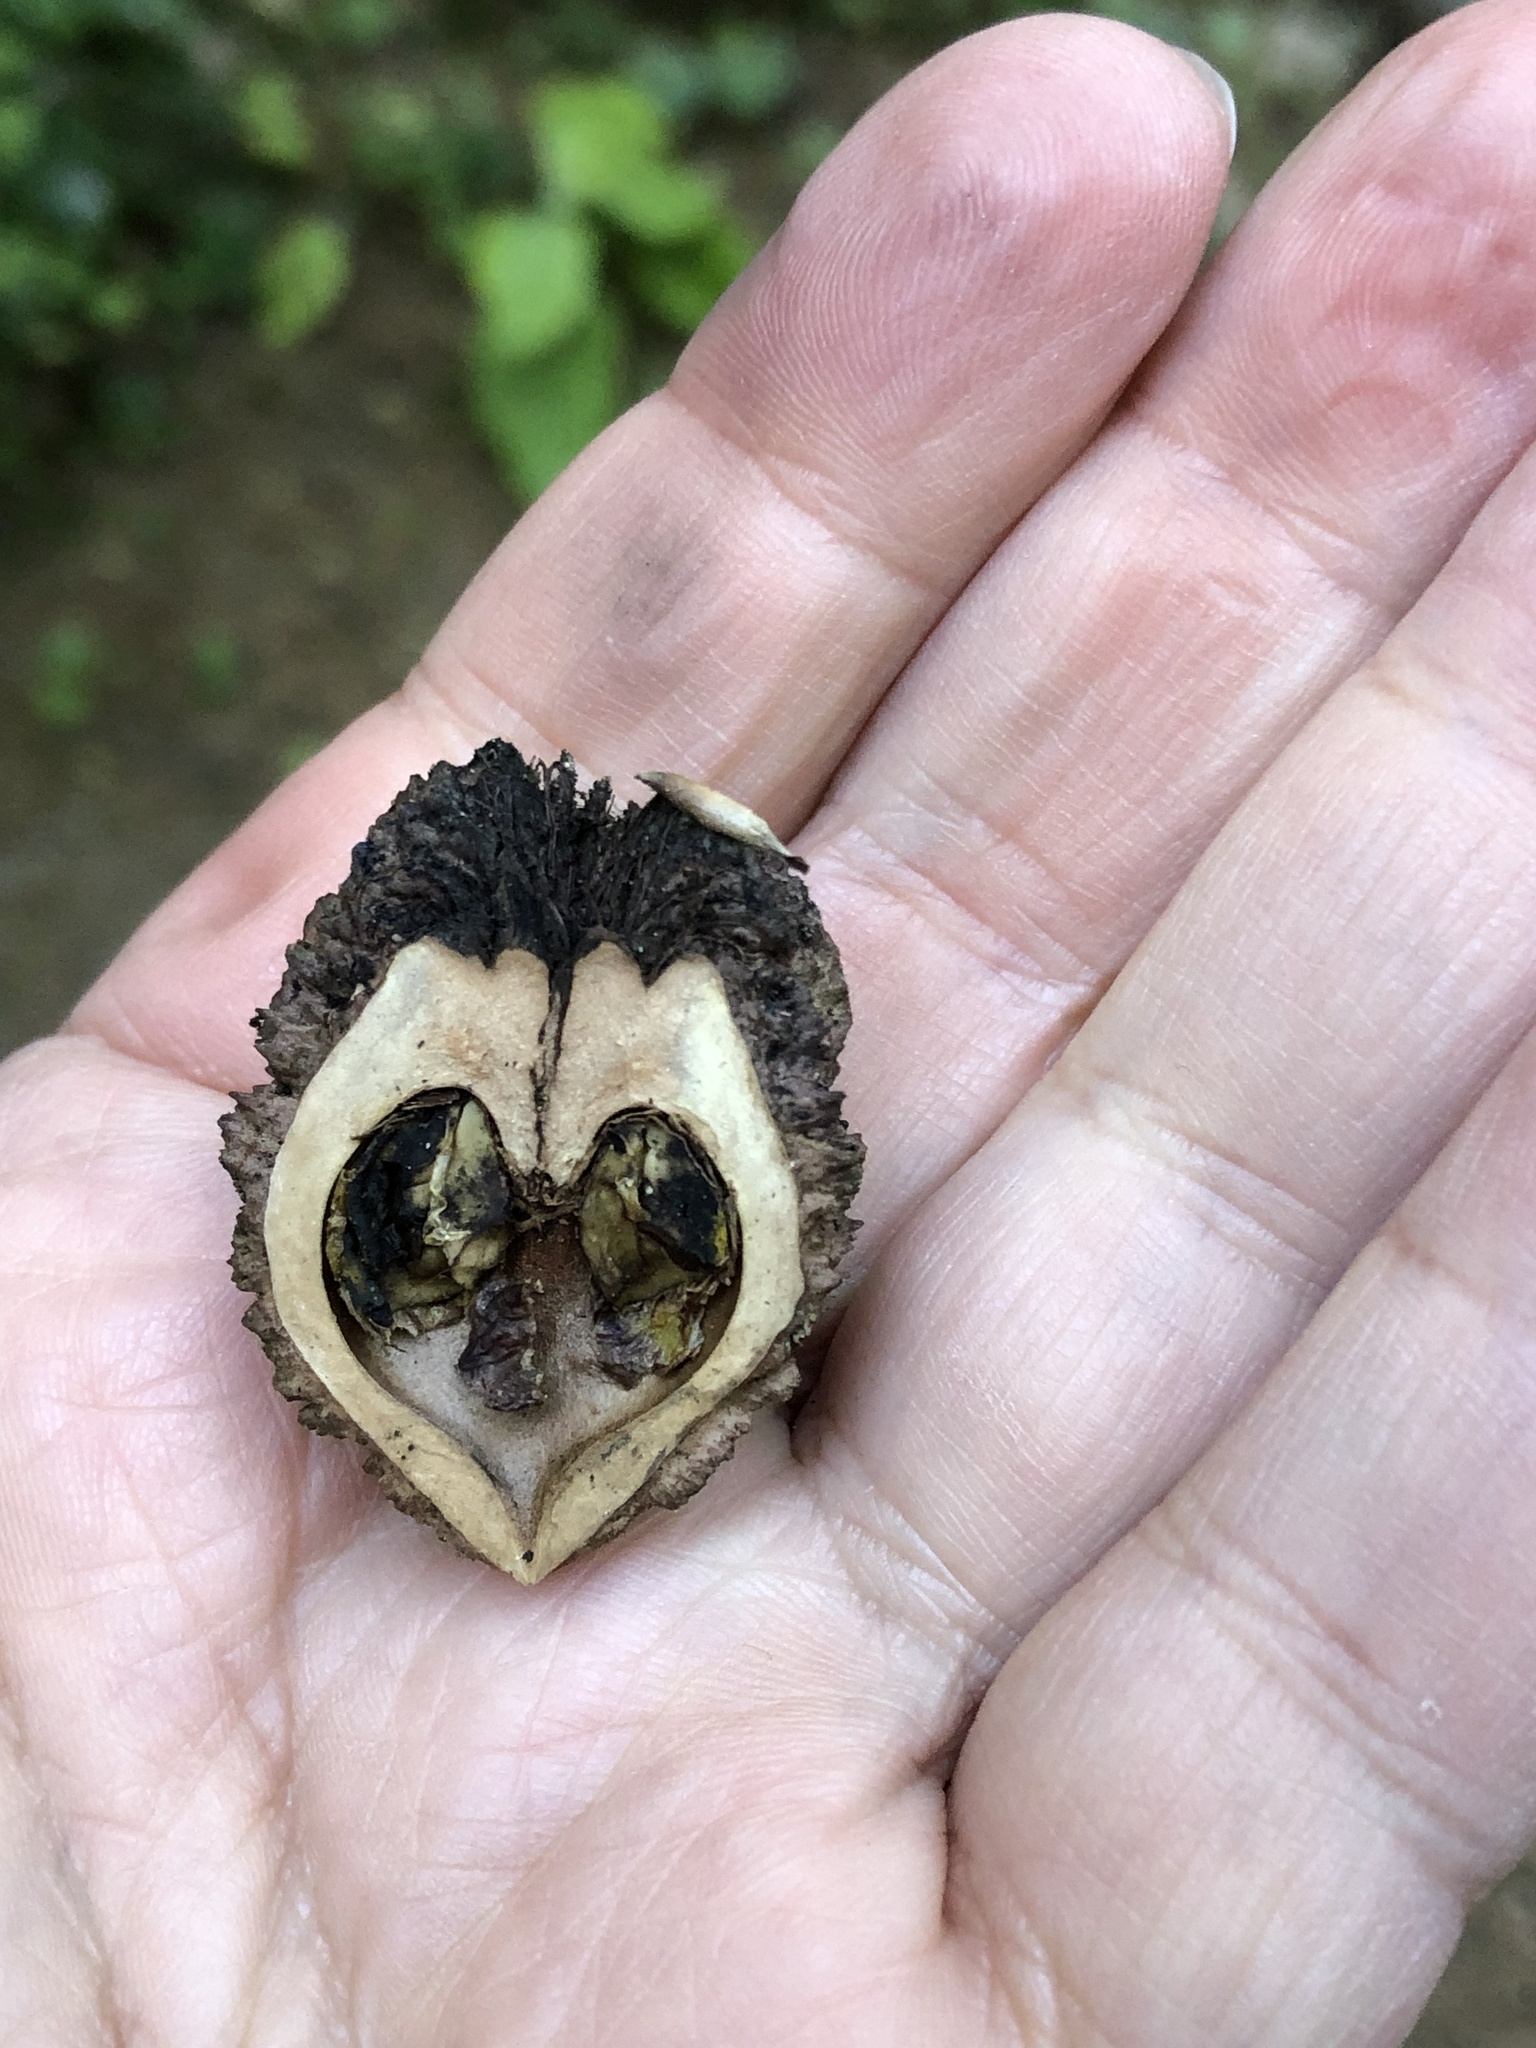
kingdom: Plantae
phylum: Tracheophyta
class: Magnoliopsida
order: Fagales
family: Juglandaceae
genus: Juglans
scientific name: Juglans nigra
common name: Black walnut
